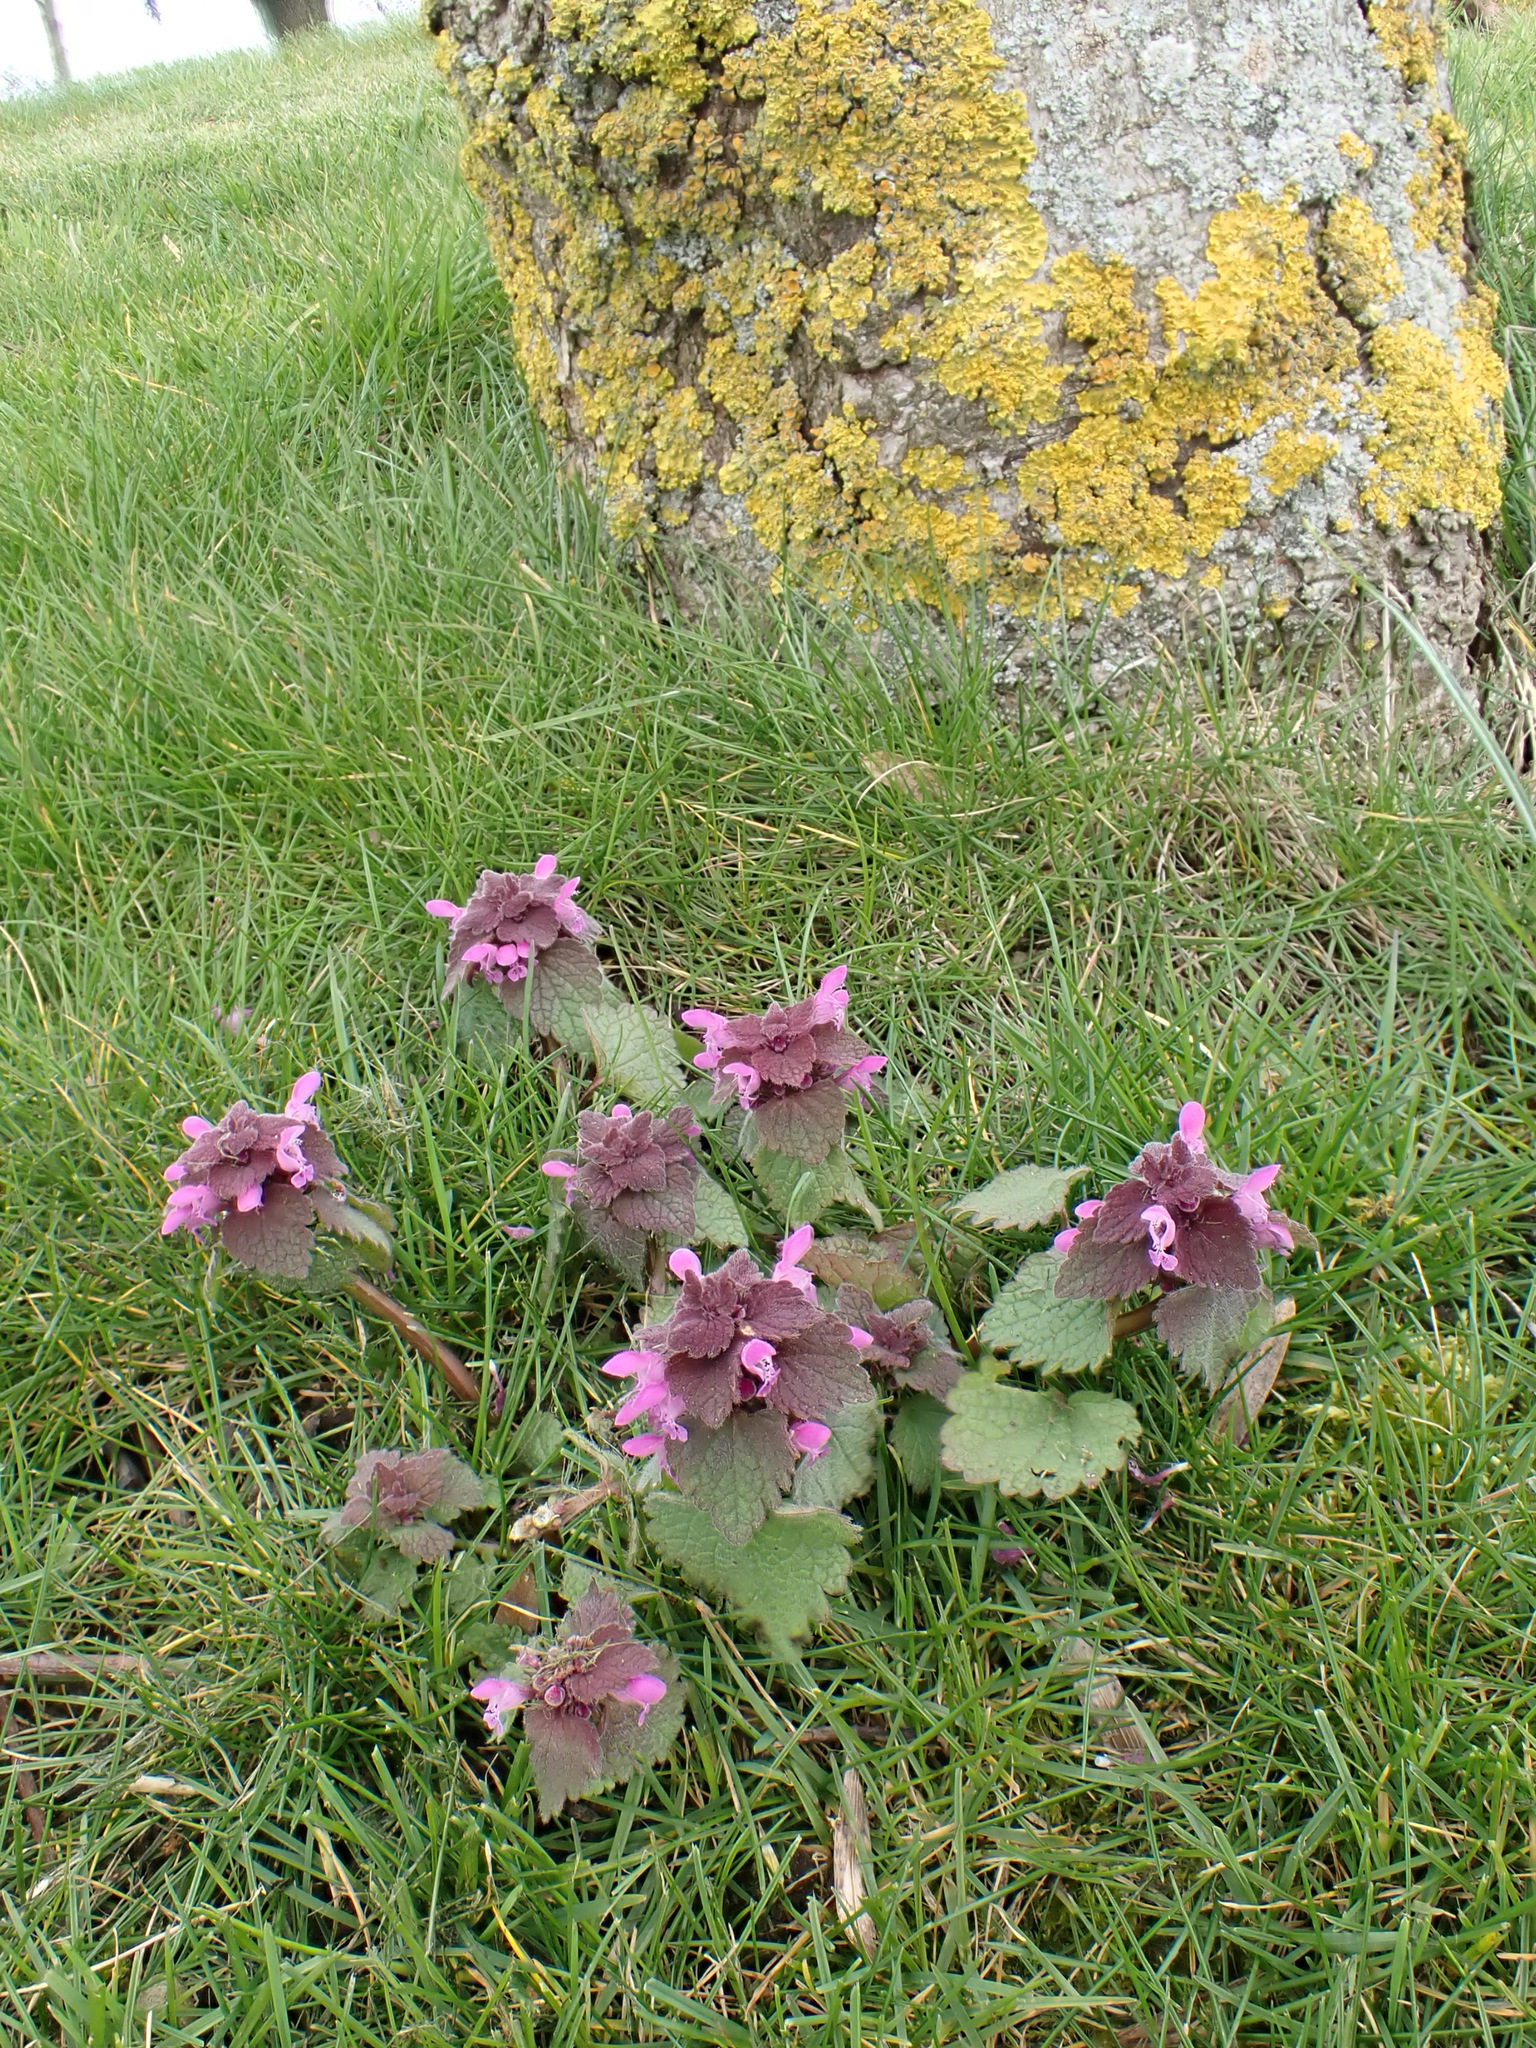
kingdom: Plantae
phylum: Tracheophyta
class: Magnoliopsida
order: Lamiales
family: Lamiaceae
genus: Lamium
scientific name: Lamium purpureum
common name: Red dead-nettle
